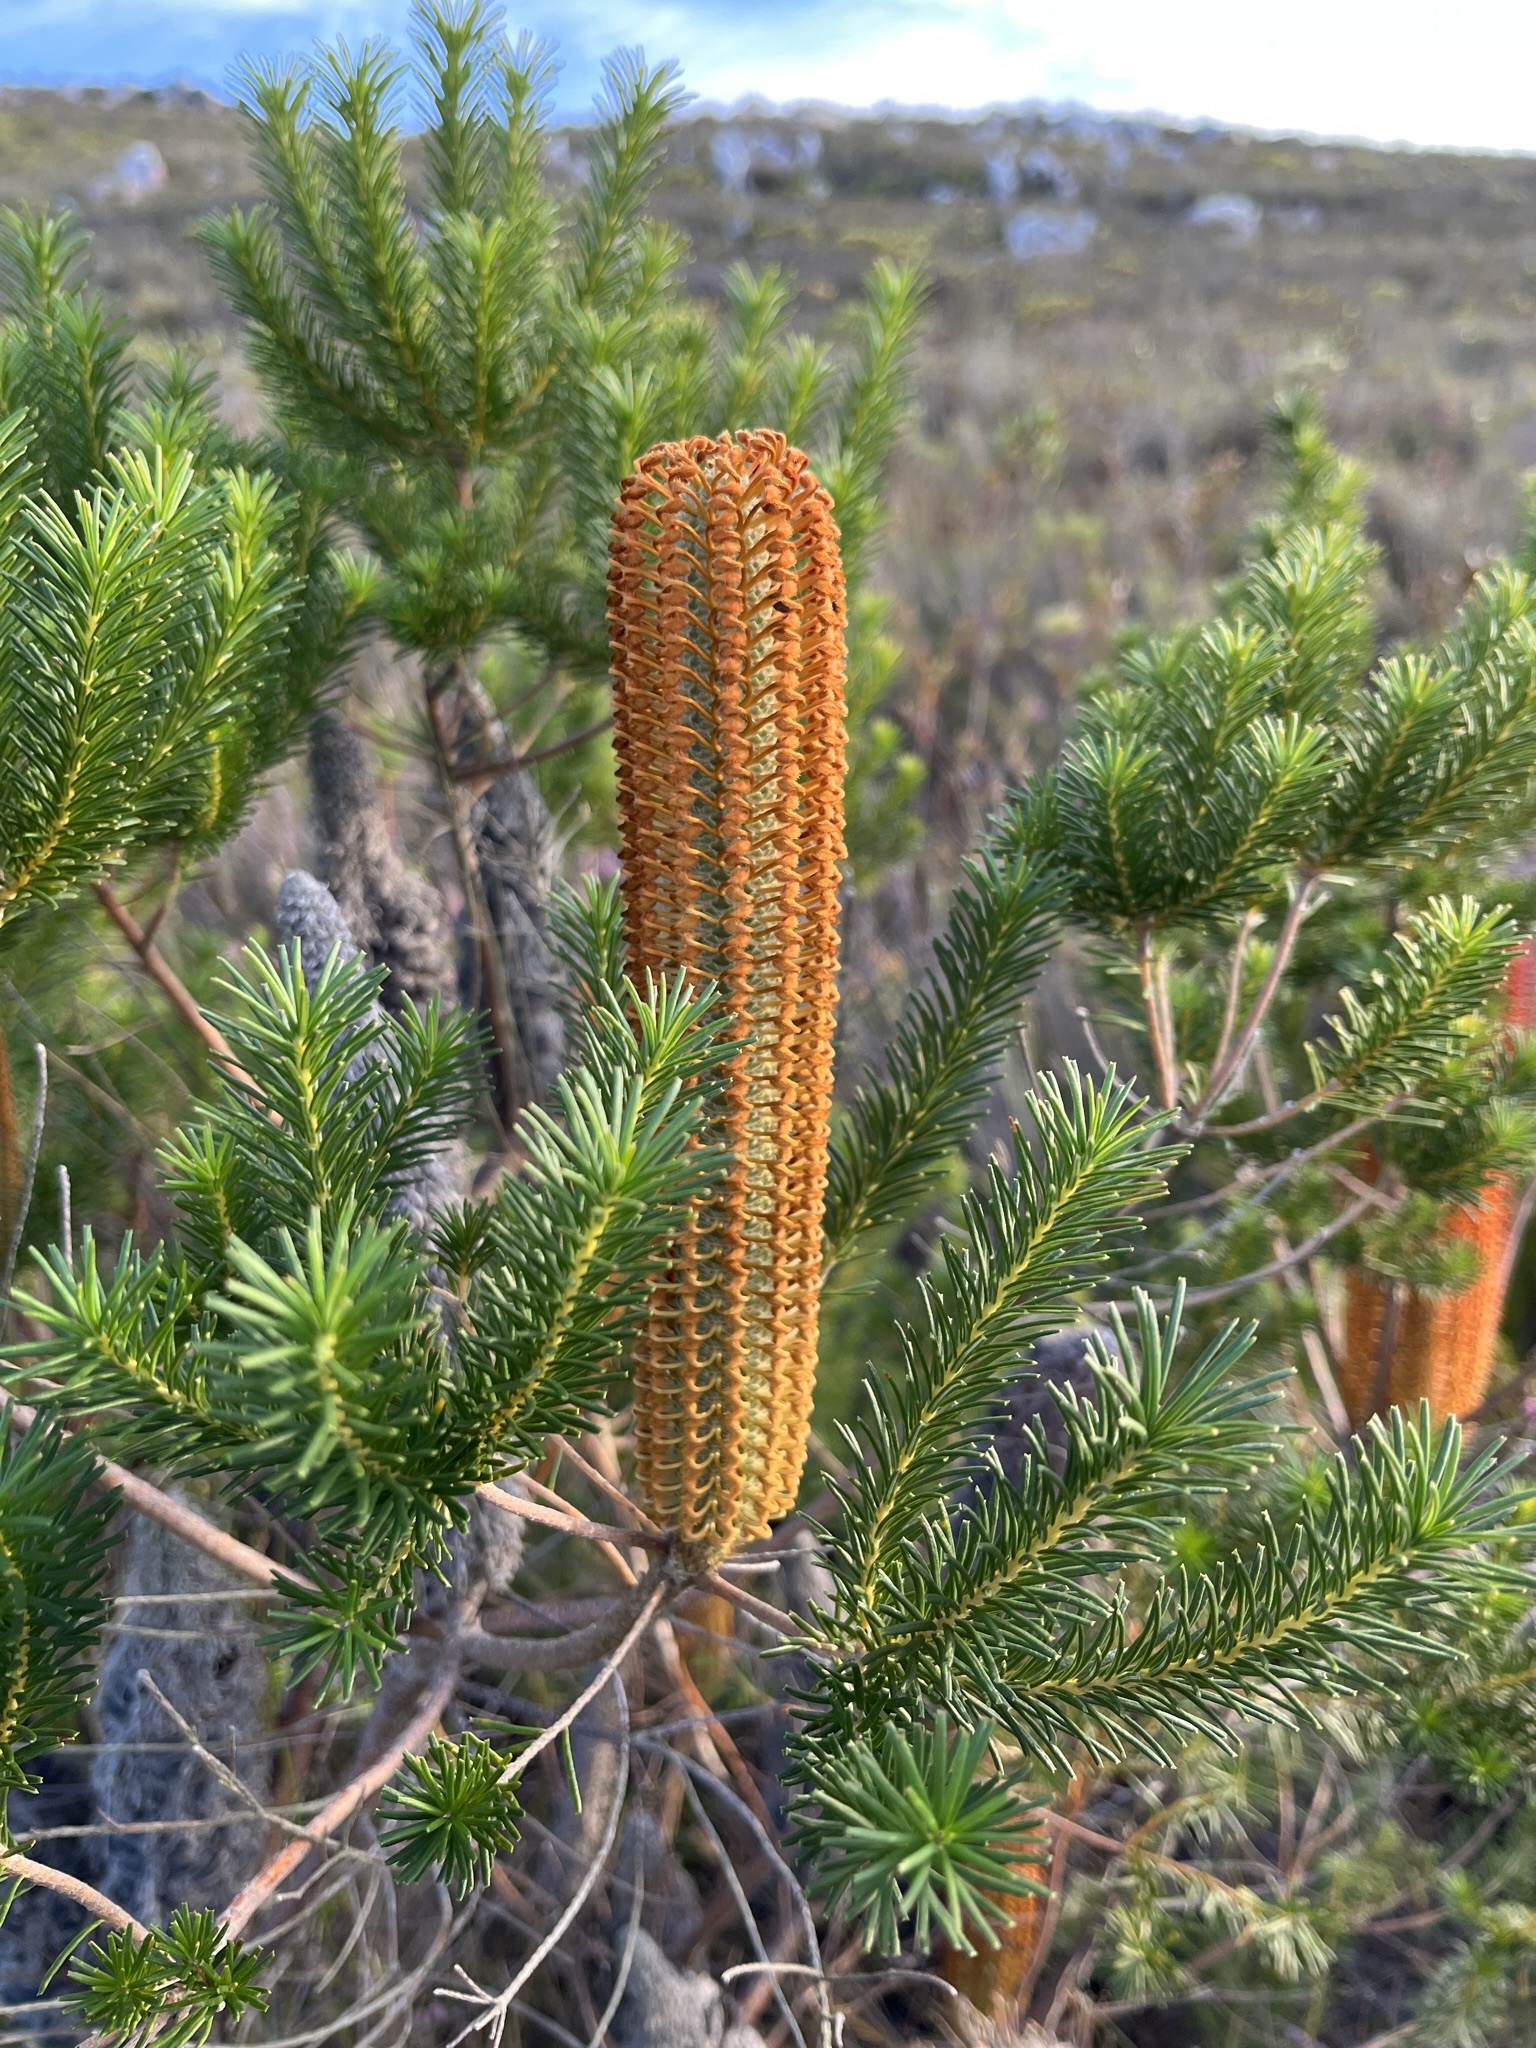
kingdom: Plantae
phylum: Tracheophyta
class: Magnoliopsida
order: Proteales
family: Proteaceae
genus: Banksia
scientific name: Banksia ericifolia
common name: Heath-leaf banksia
